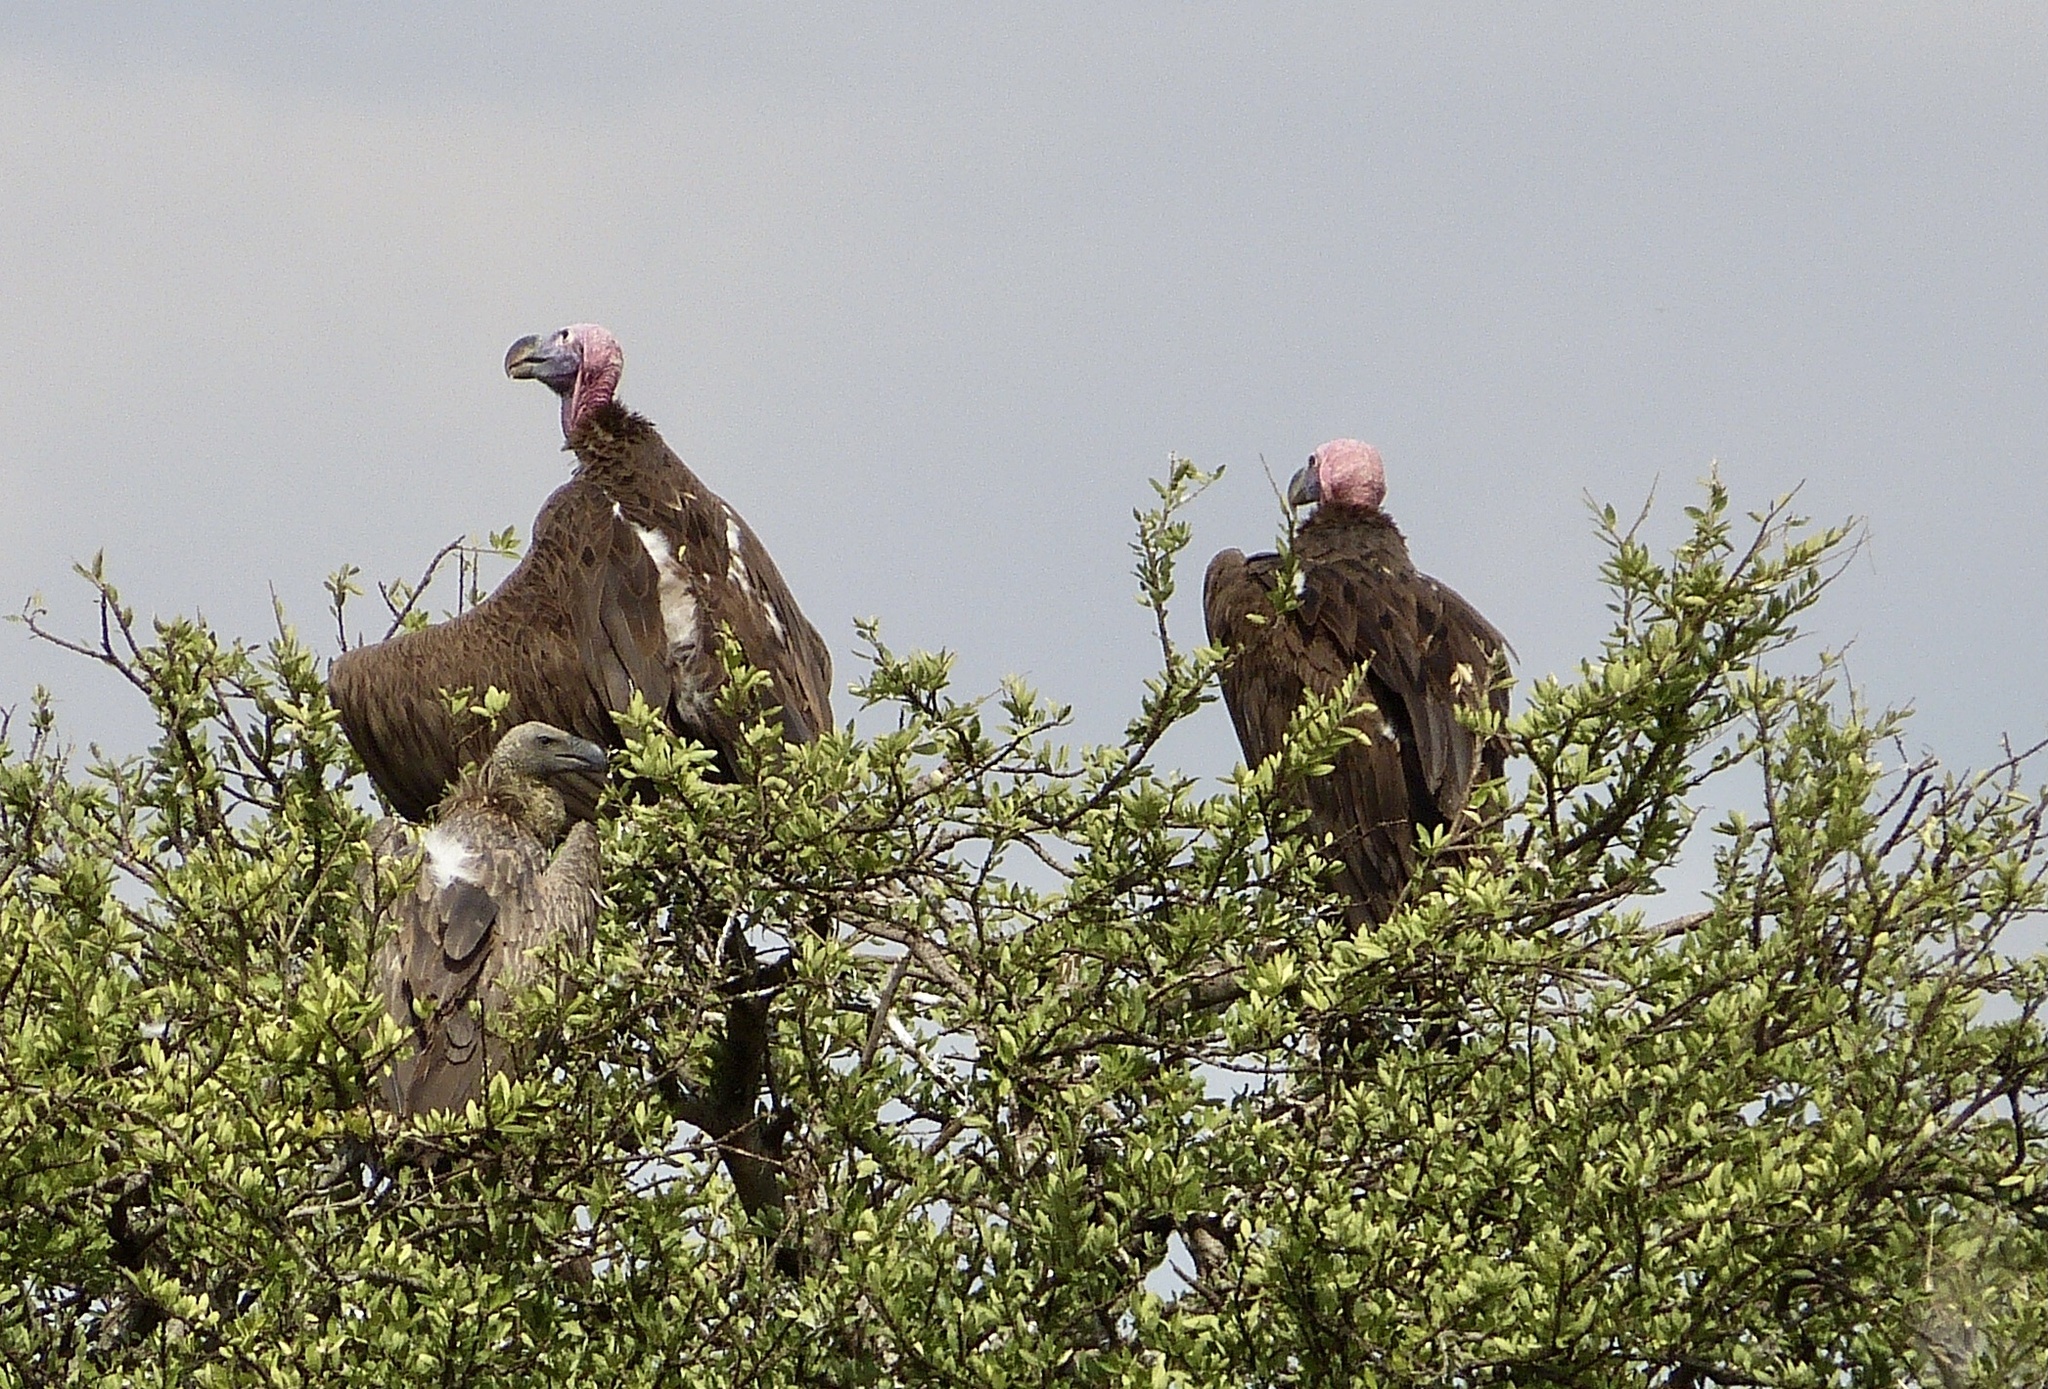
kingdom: Animalia
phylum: Chordata
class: Aves
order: Accipitriformes
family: Accipitridae
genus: Torgos
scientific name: Torgos tracheliotos
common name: Lappet-faced vulture
